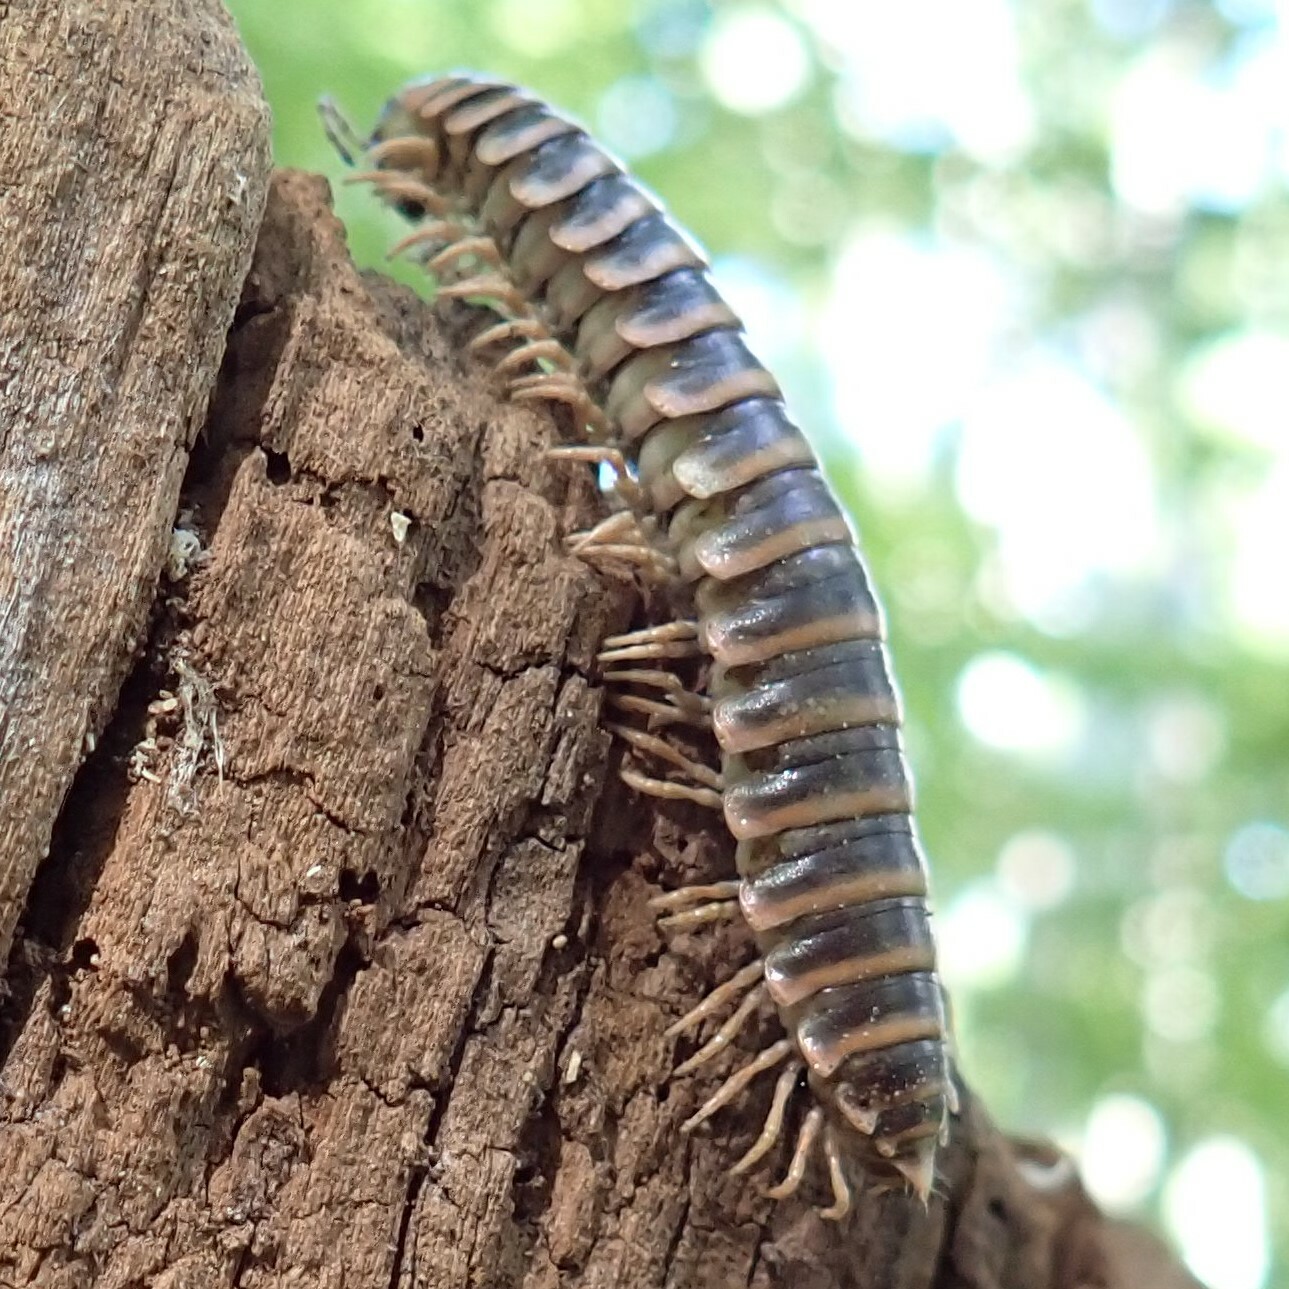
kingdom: Animalia
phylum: Arthropoda
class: Diplopoda
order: Polydesmida
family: Xystodesmidae
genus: Apheloria
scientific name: Apheloria virginiensis
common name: Black-and-gold flat millipede
